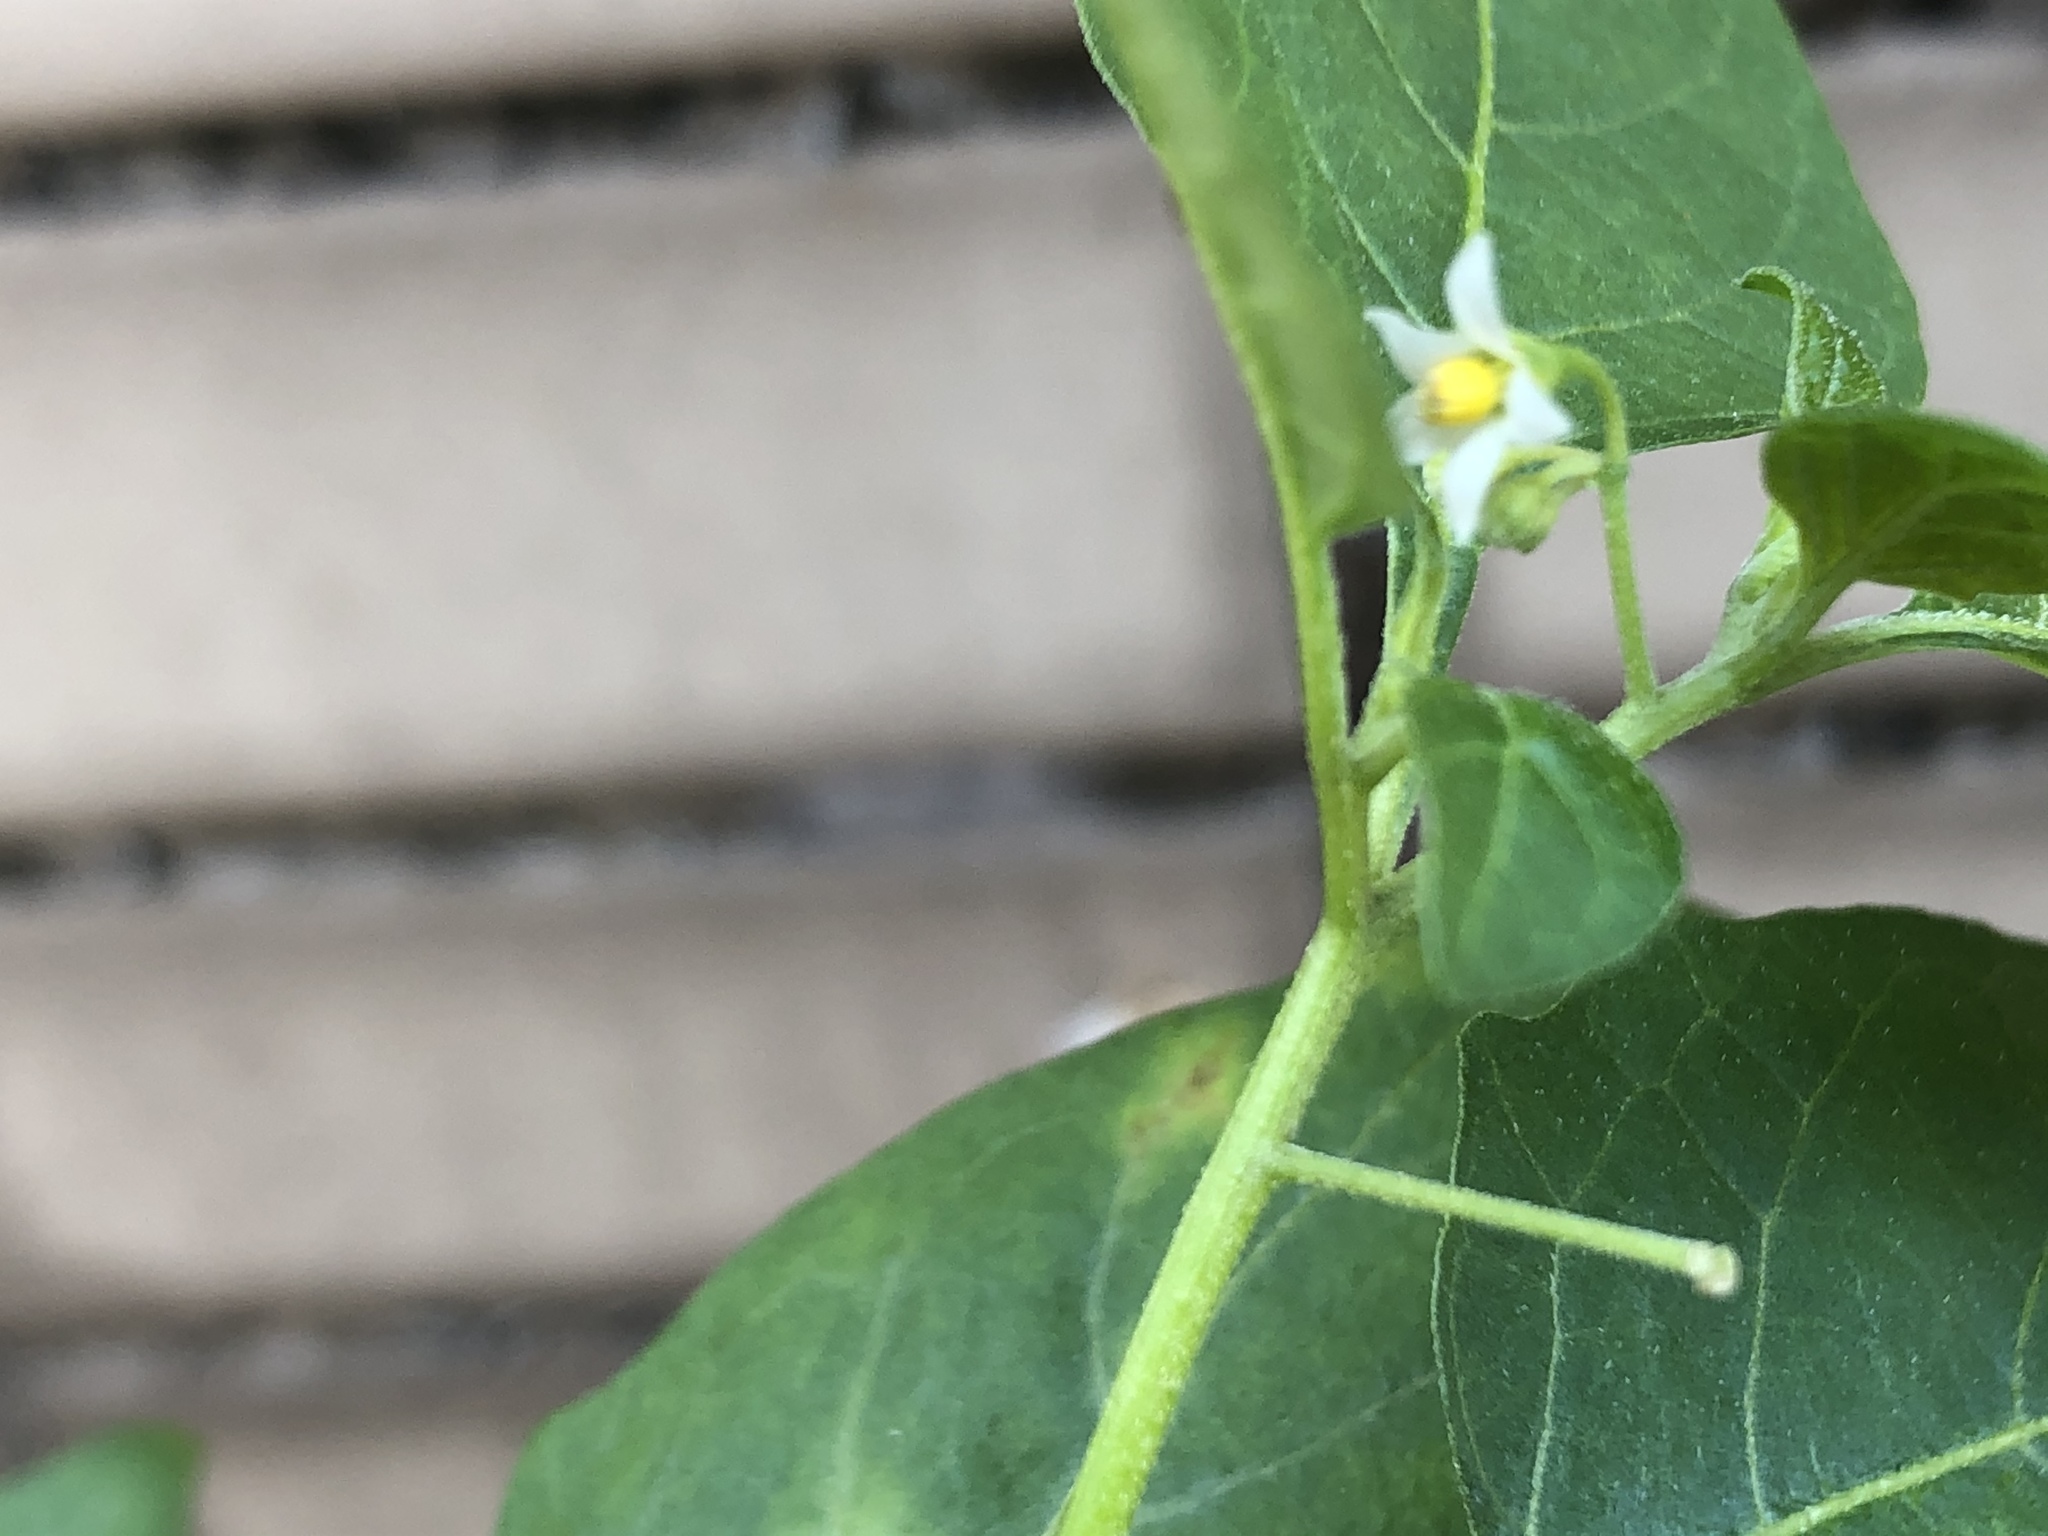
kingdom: Plantae
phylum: Tracheophyta
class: Magnoliopsida
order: Solanales
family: Solanaceae
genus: Solanum
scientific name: Solanum nigrum
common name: Black nightshade
